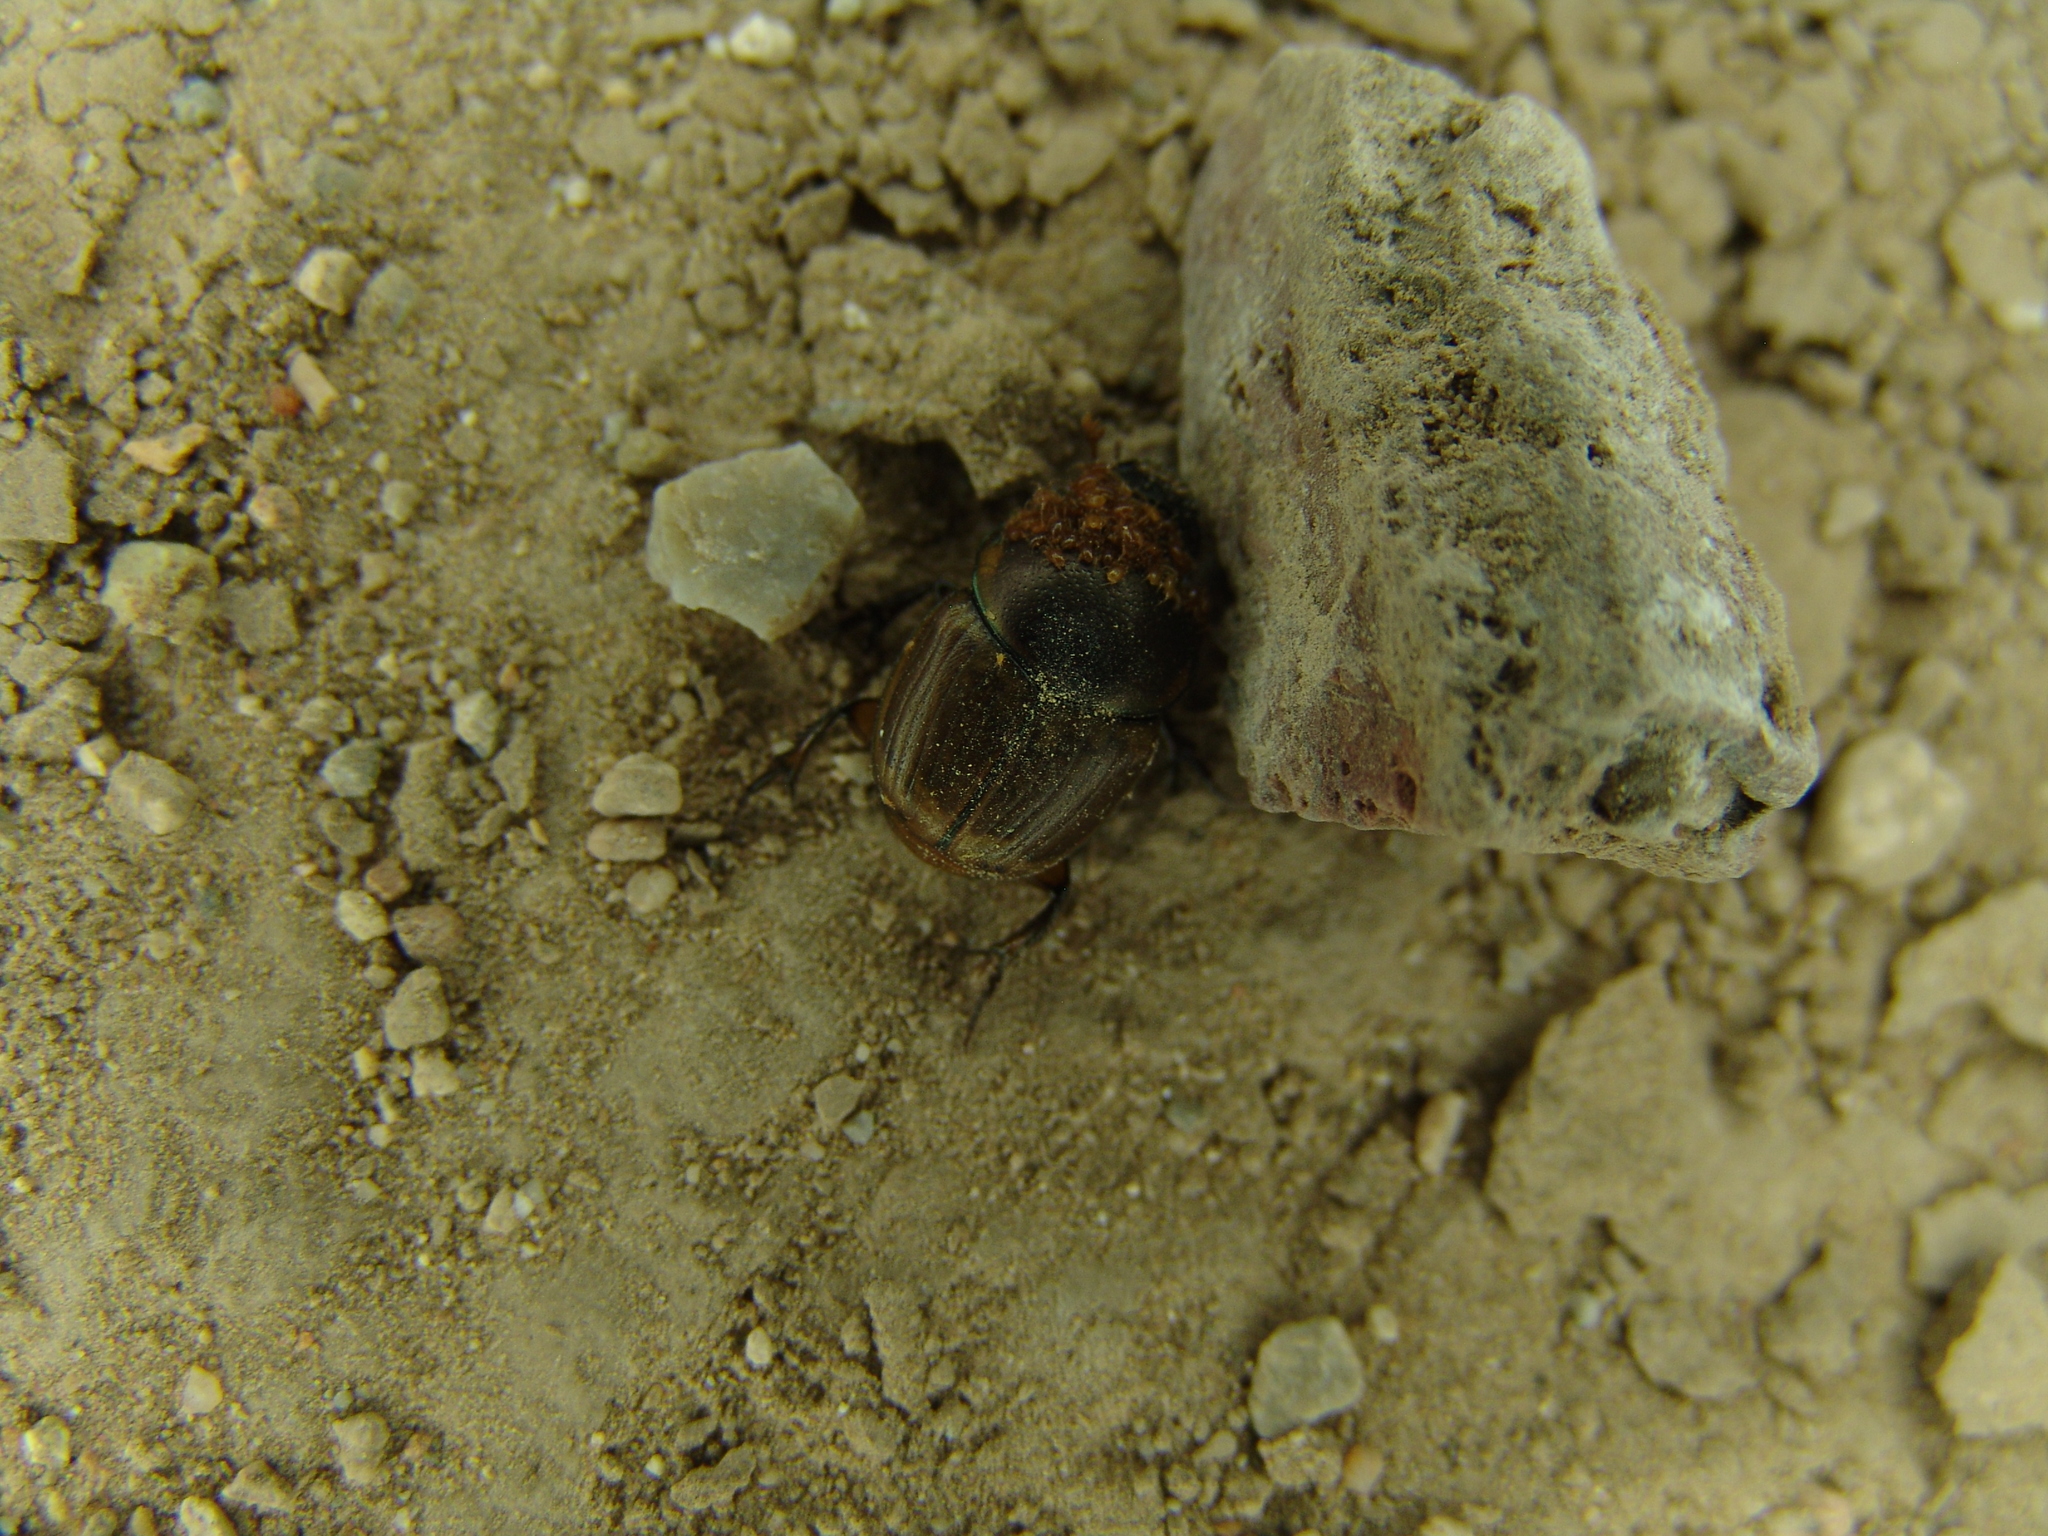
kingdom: Animalia
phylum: Arthropoda
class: Insecta
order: Coleoptera
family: Scarabaeidae
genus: Digitonthophagus
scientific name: Digitonthophagus gazella
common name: Brown dung beetle
